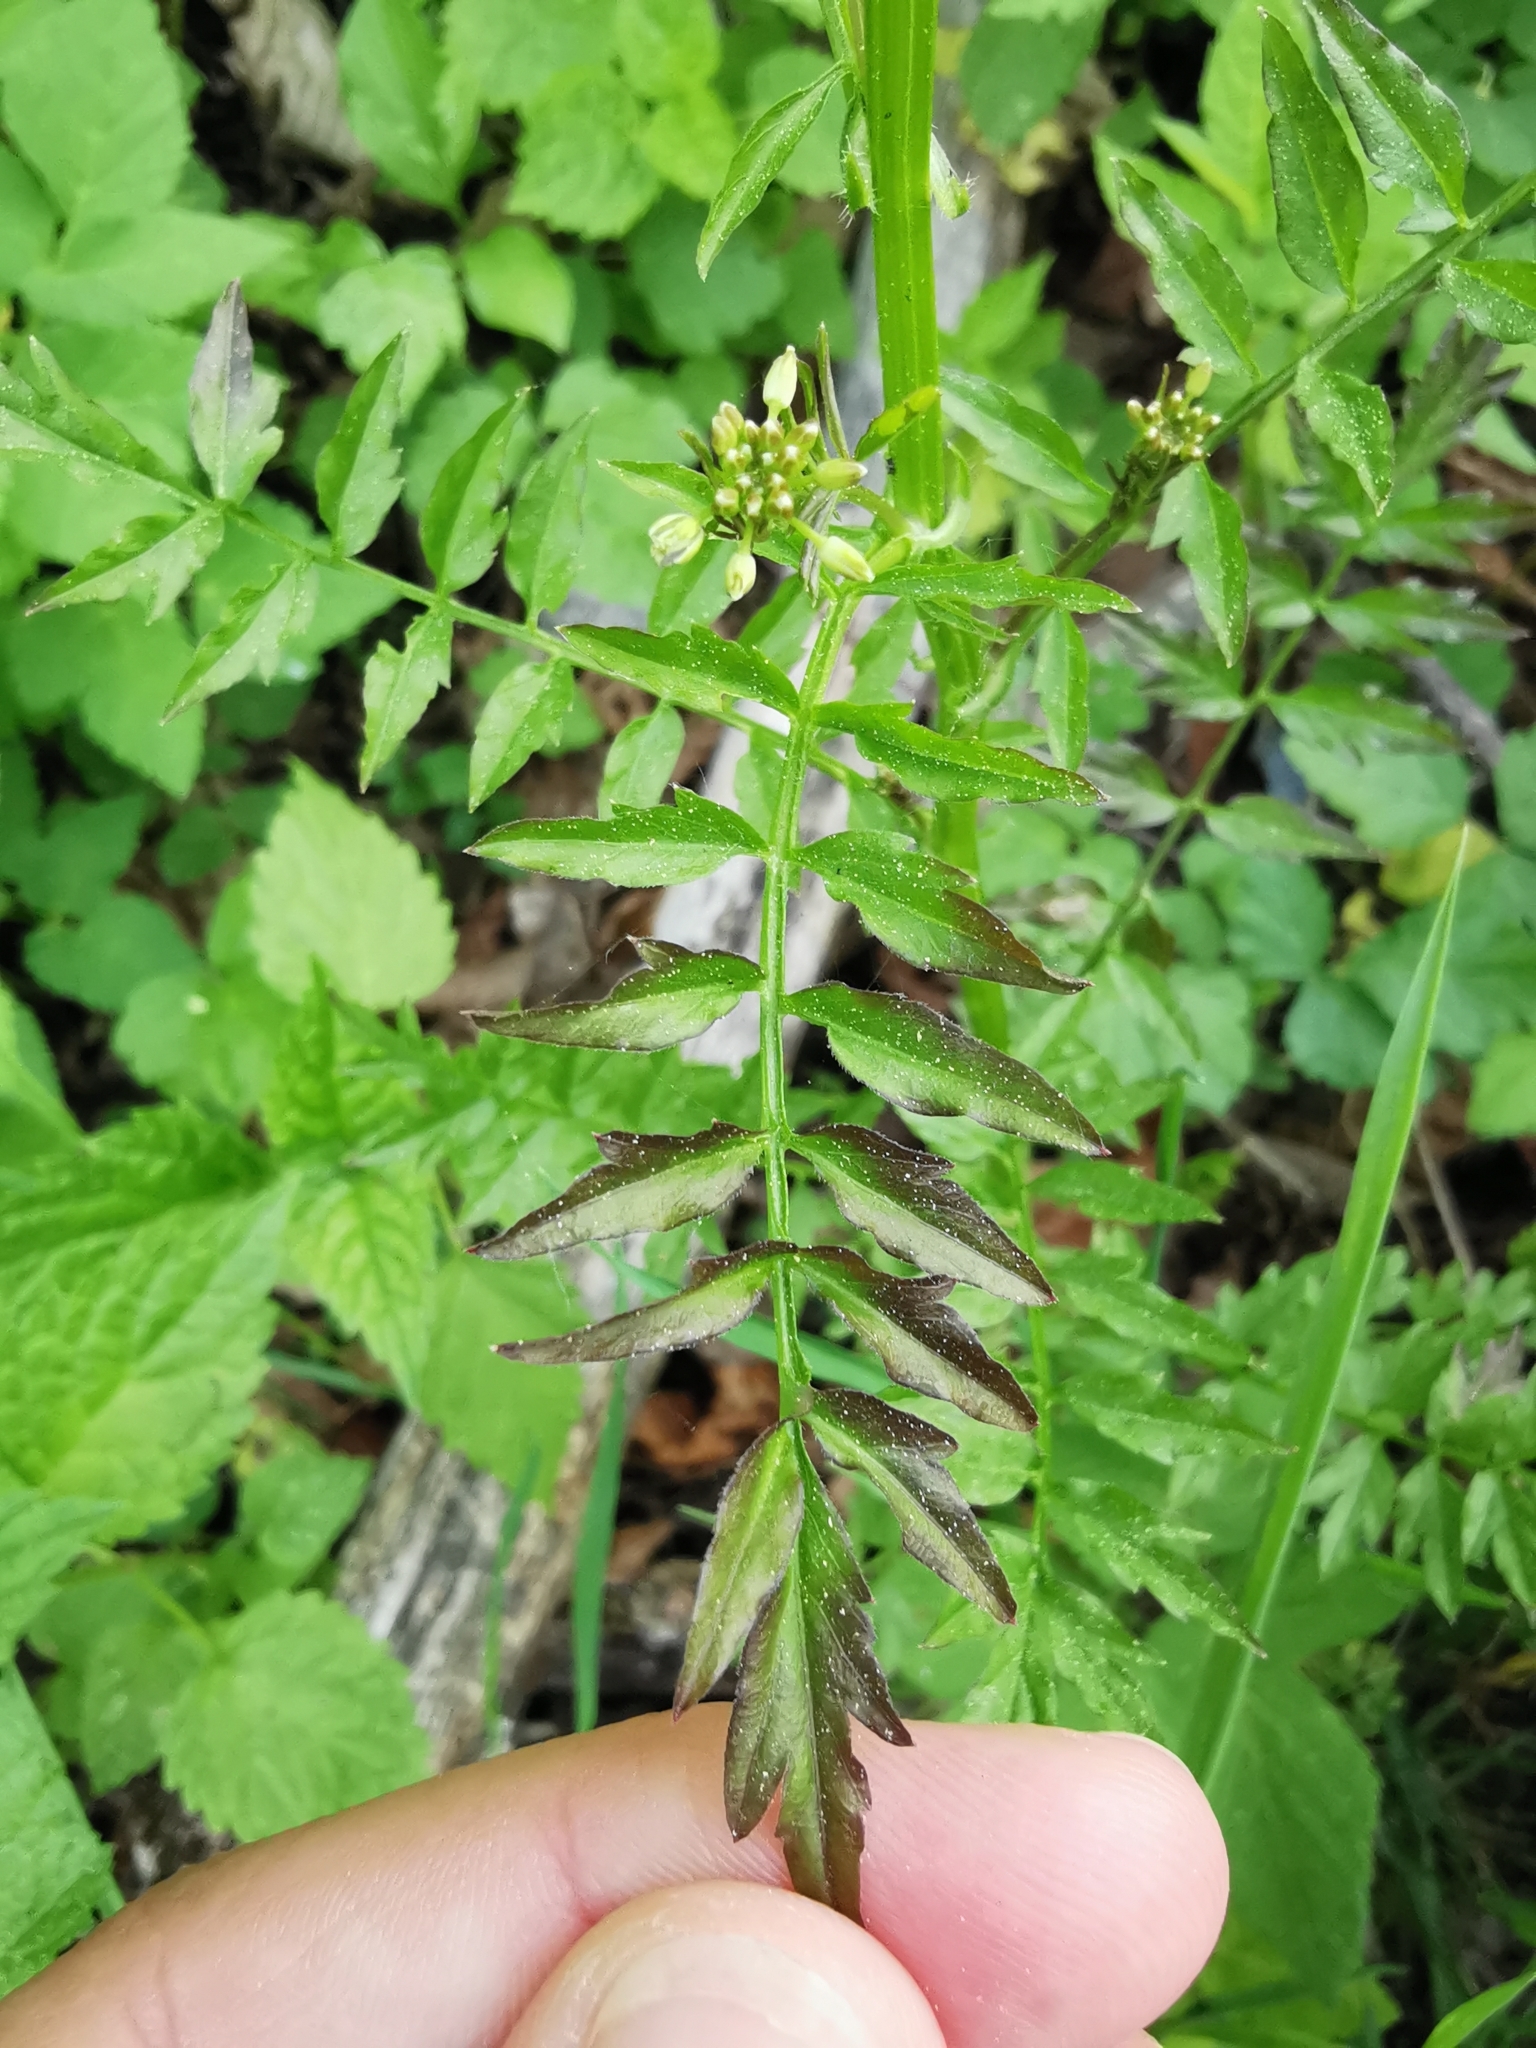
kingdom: Plantae
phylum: Tracheophyta
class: Magnoliopsida
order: Brassicales
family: Brassicaceae
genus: Cardamine
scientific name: Cardamine impatiens
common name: Narrow-leaved bitter-cress
